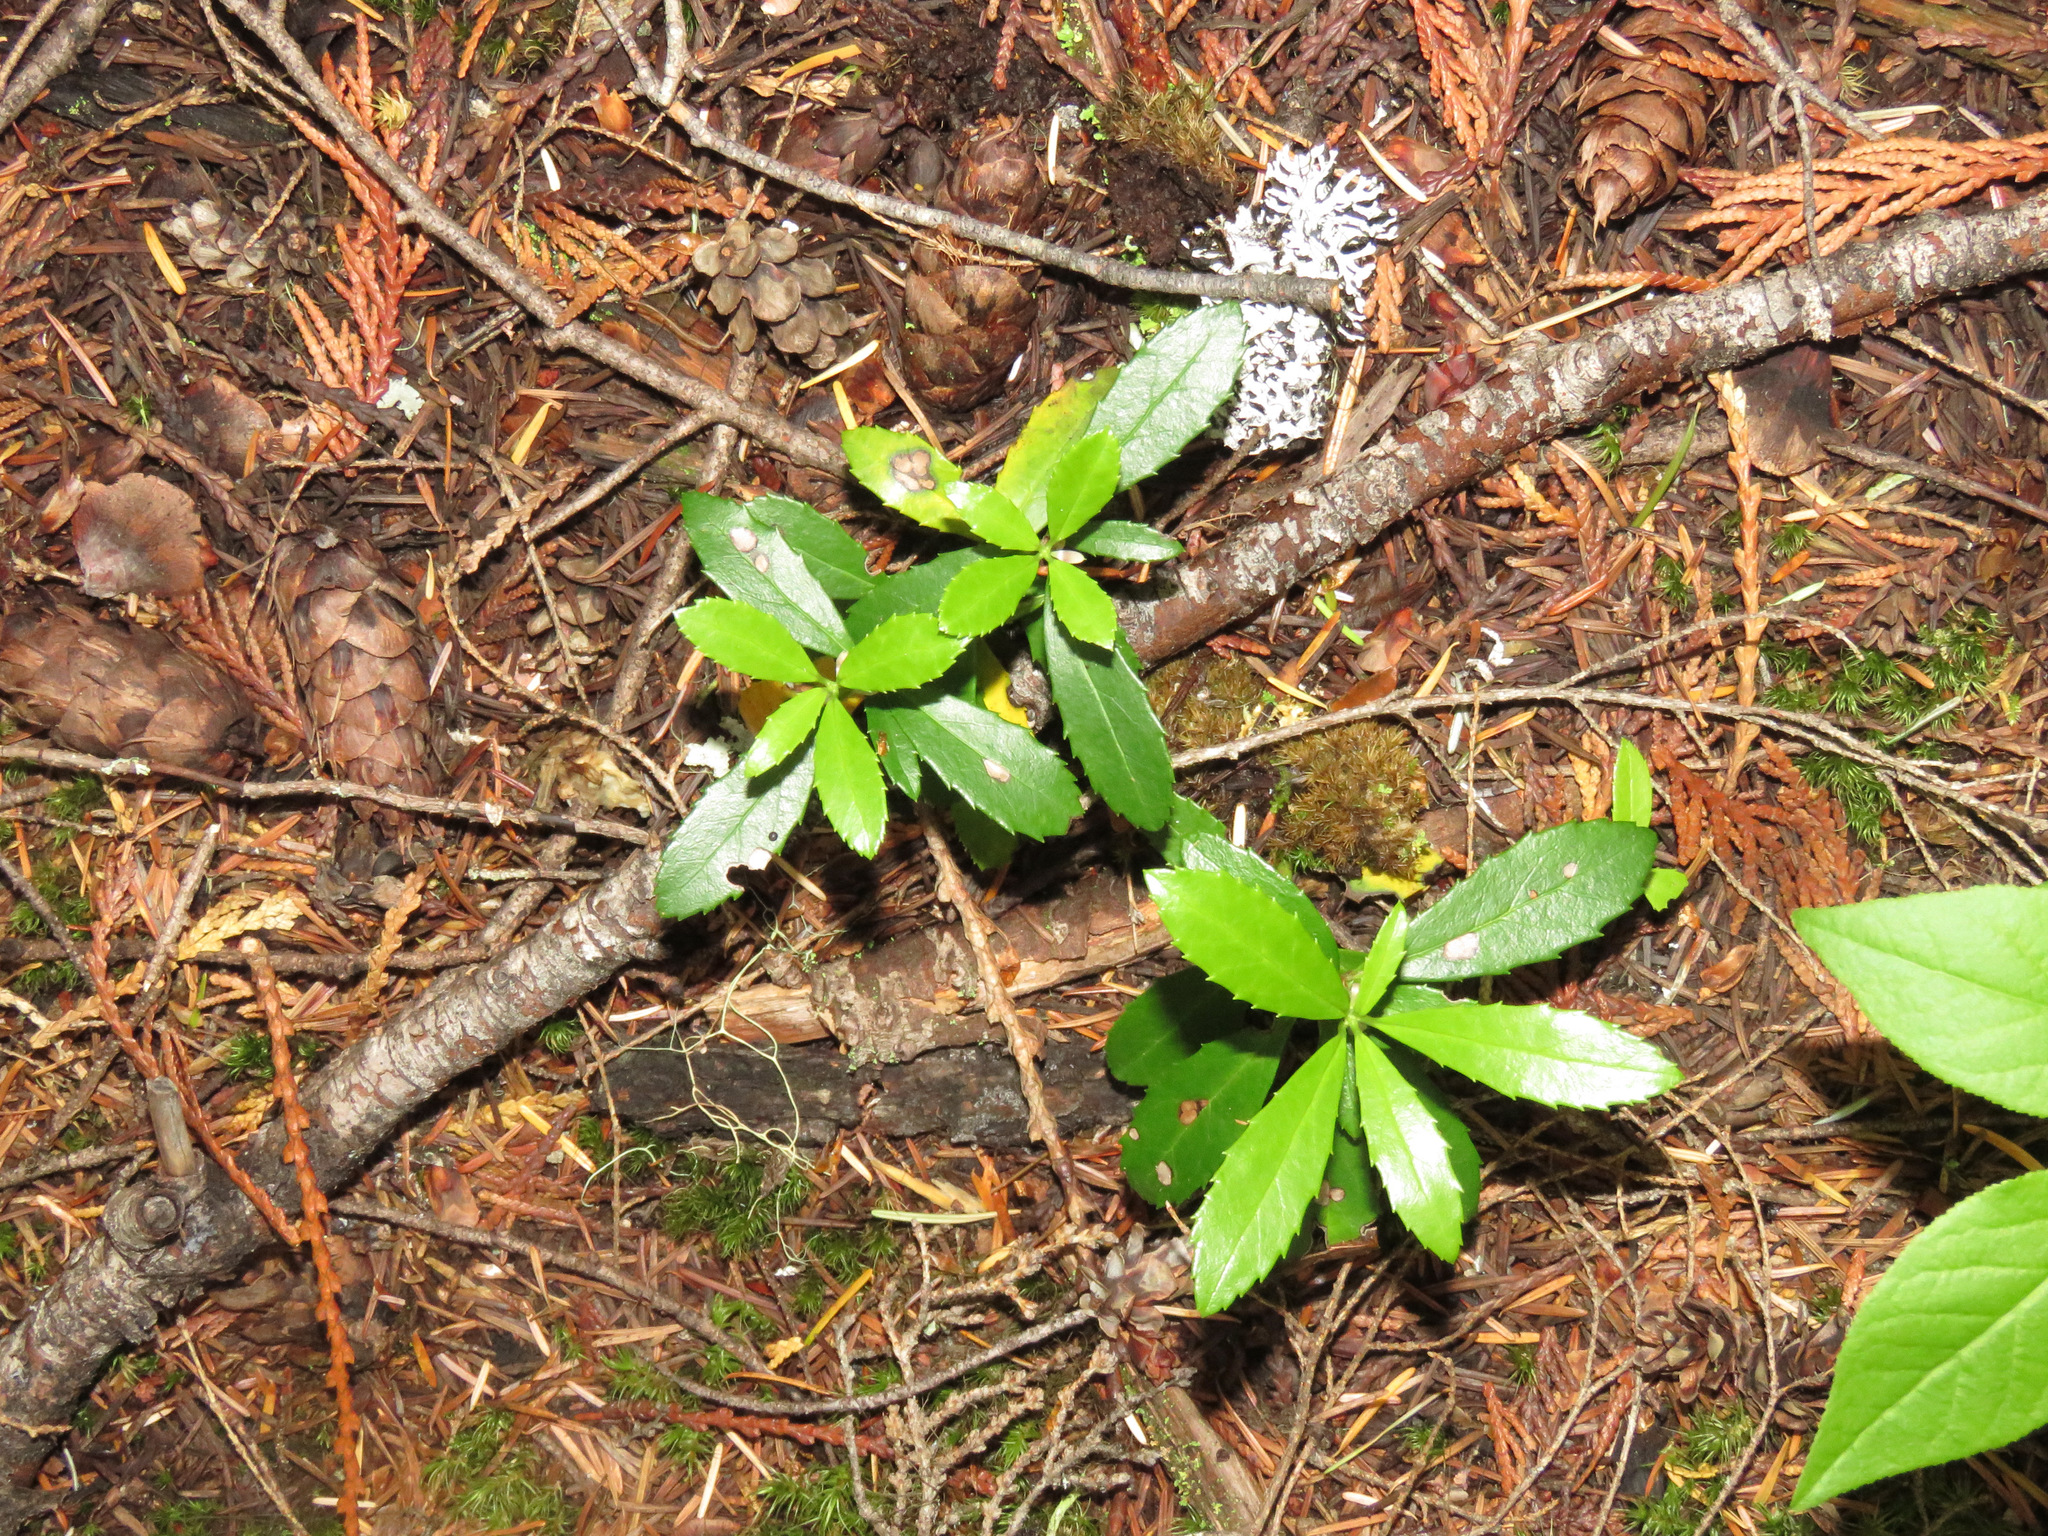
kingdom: Plantae
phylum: Tracheophyta
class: Magnoliopsida
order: Ericales
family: Ericaceae
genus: Chimaphila
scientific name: Chimaphila umbellata
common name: Pipsissewa
